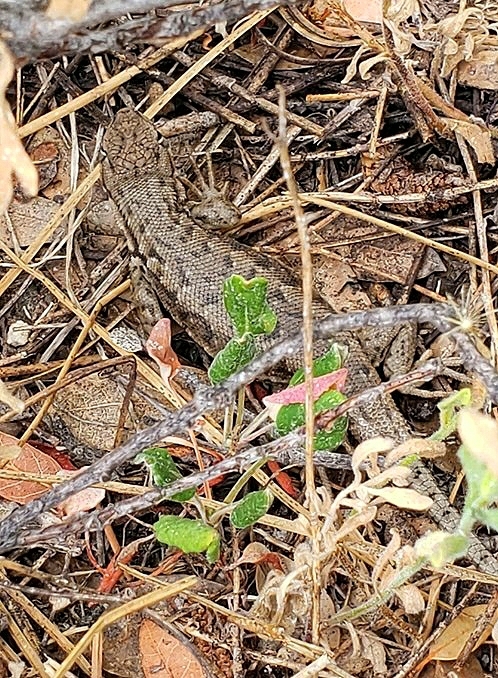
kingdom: Animalia
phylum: Chordata
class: Squamata
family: Phrynosomatidae
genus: Sceloporus
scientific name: Sceloporus graciosus
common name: Sagebrush lizard
